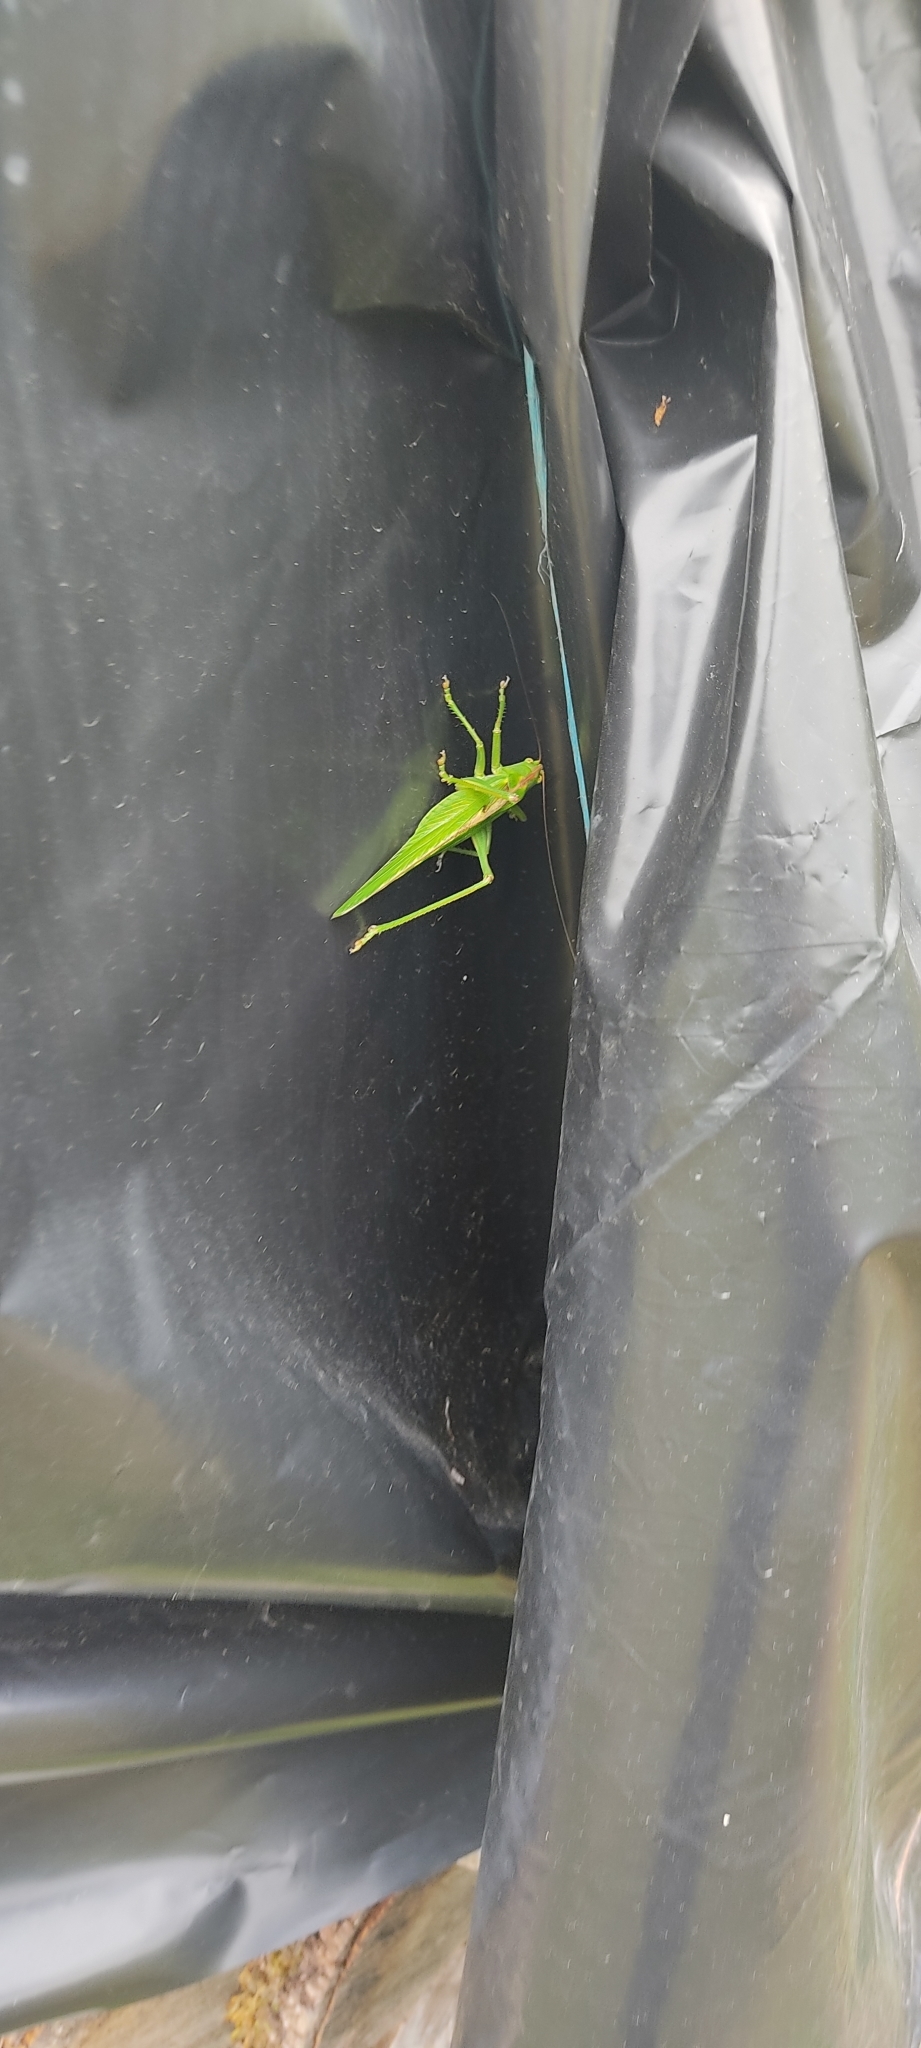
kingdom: Animalia
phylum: Arthropoda
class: Insecta
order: Orthoptera
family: Tettigoniidae
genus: Tettigonia
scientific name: Tettigonia viridissima
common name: Great green bush-cricket
